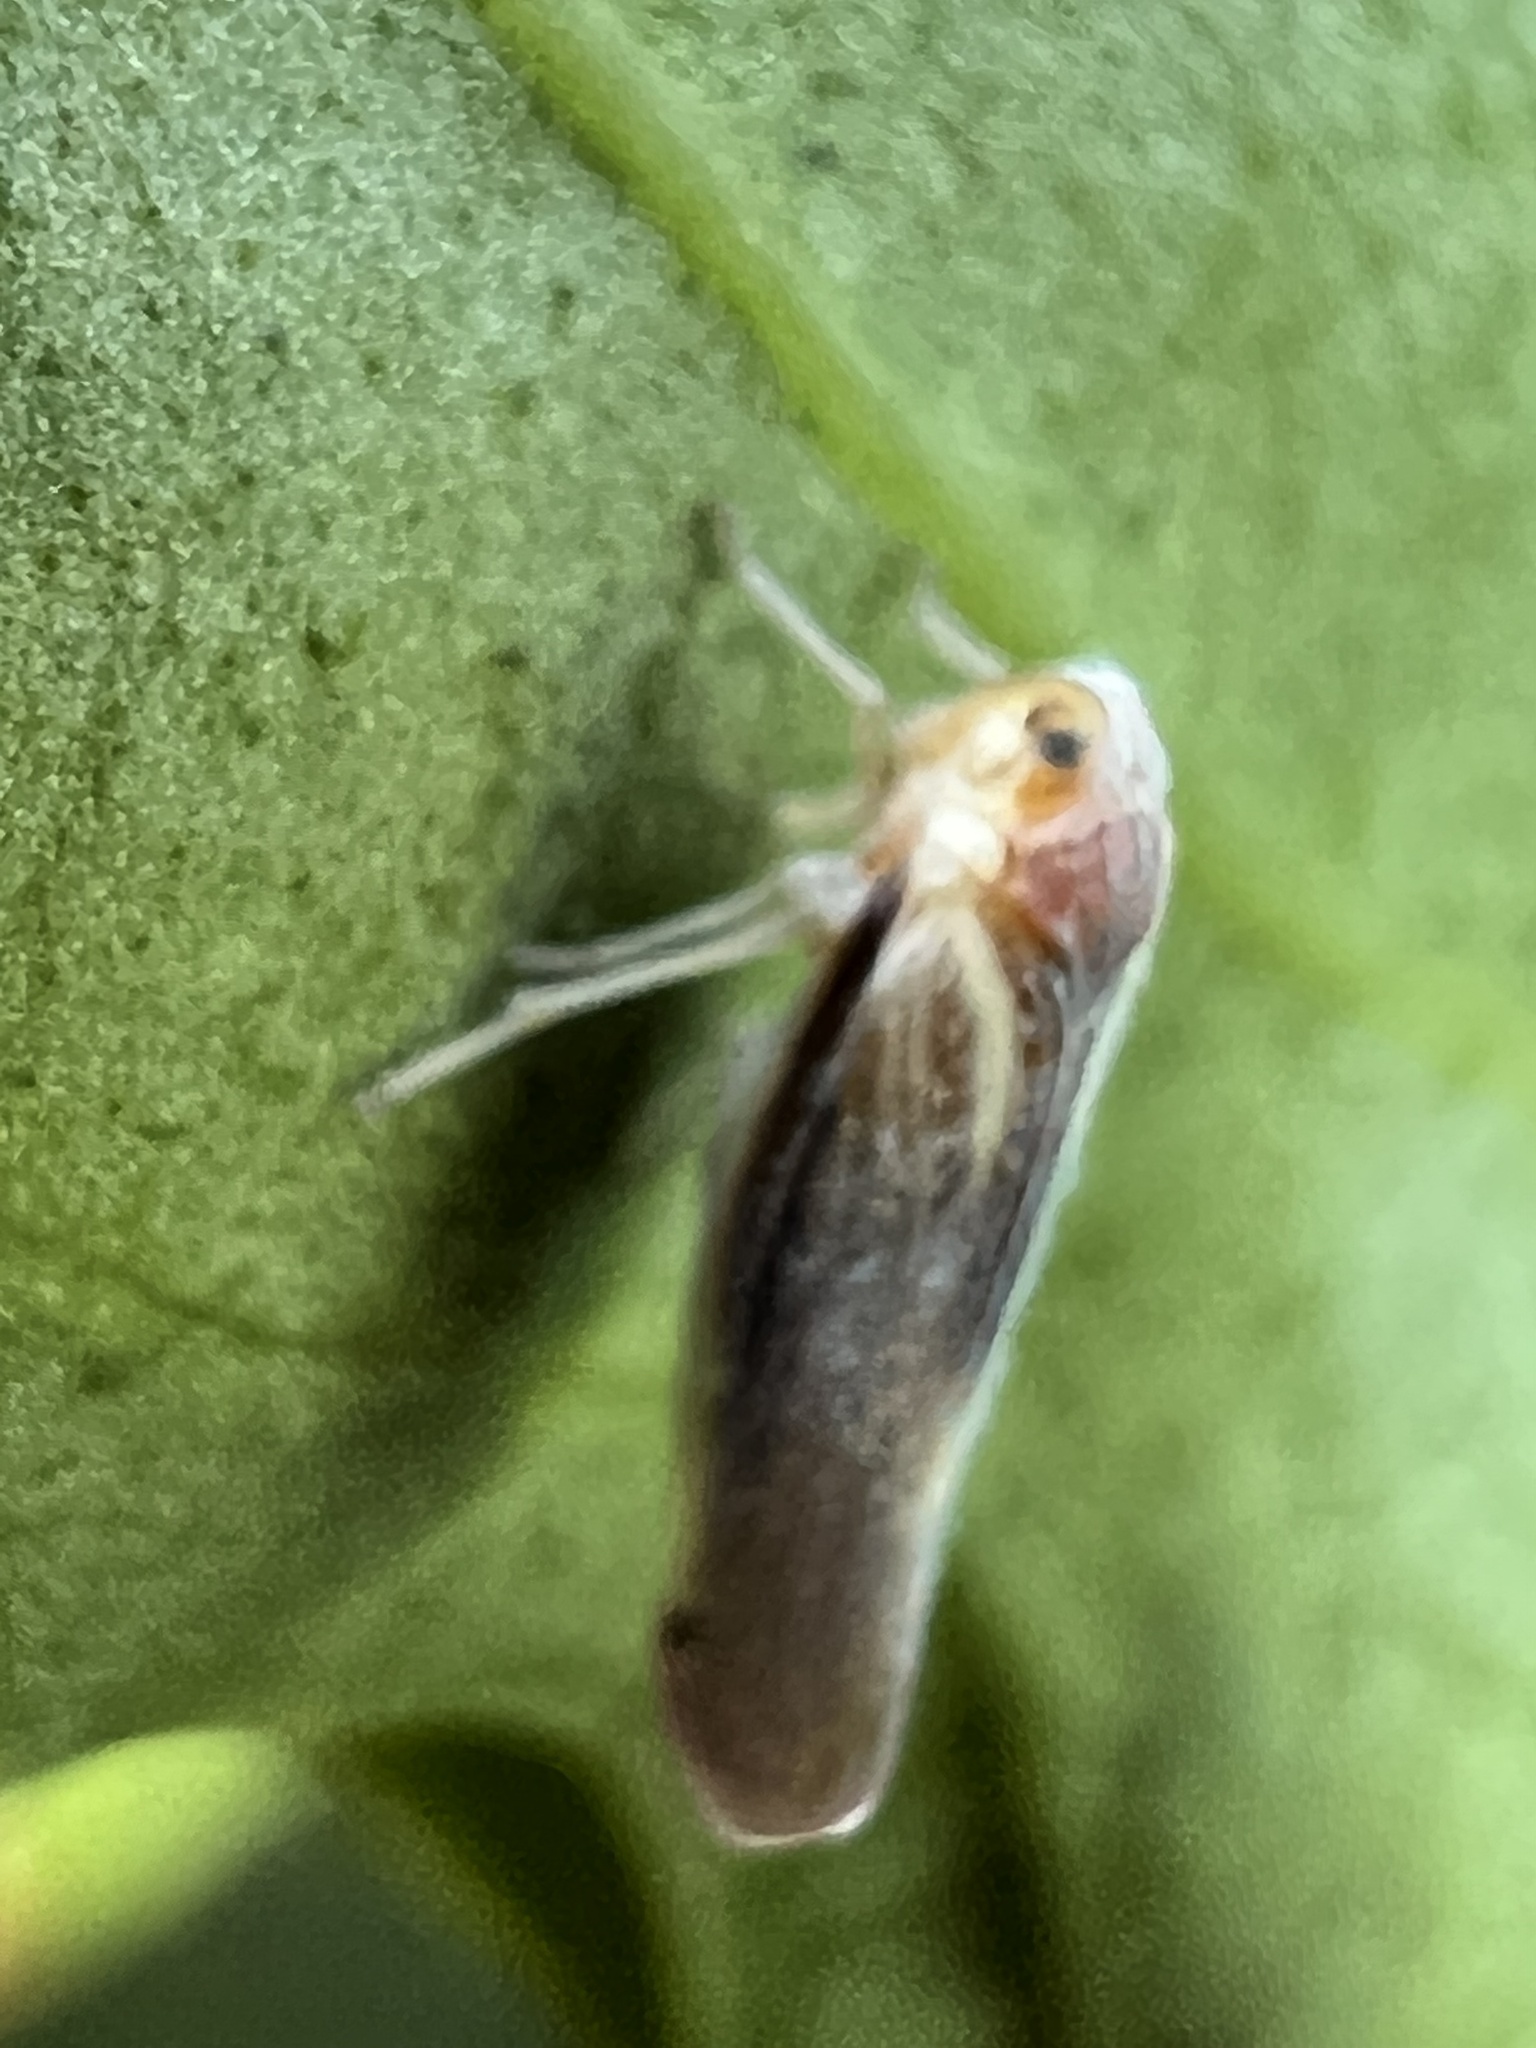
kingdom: Animalia
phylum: Arthropoda
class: Insecta
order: Hemiptera
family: Derbidae
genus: Omolicna
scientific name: Omolicna uhleri
